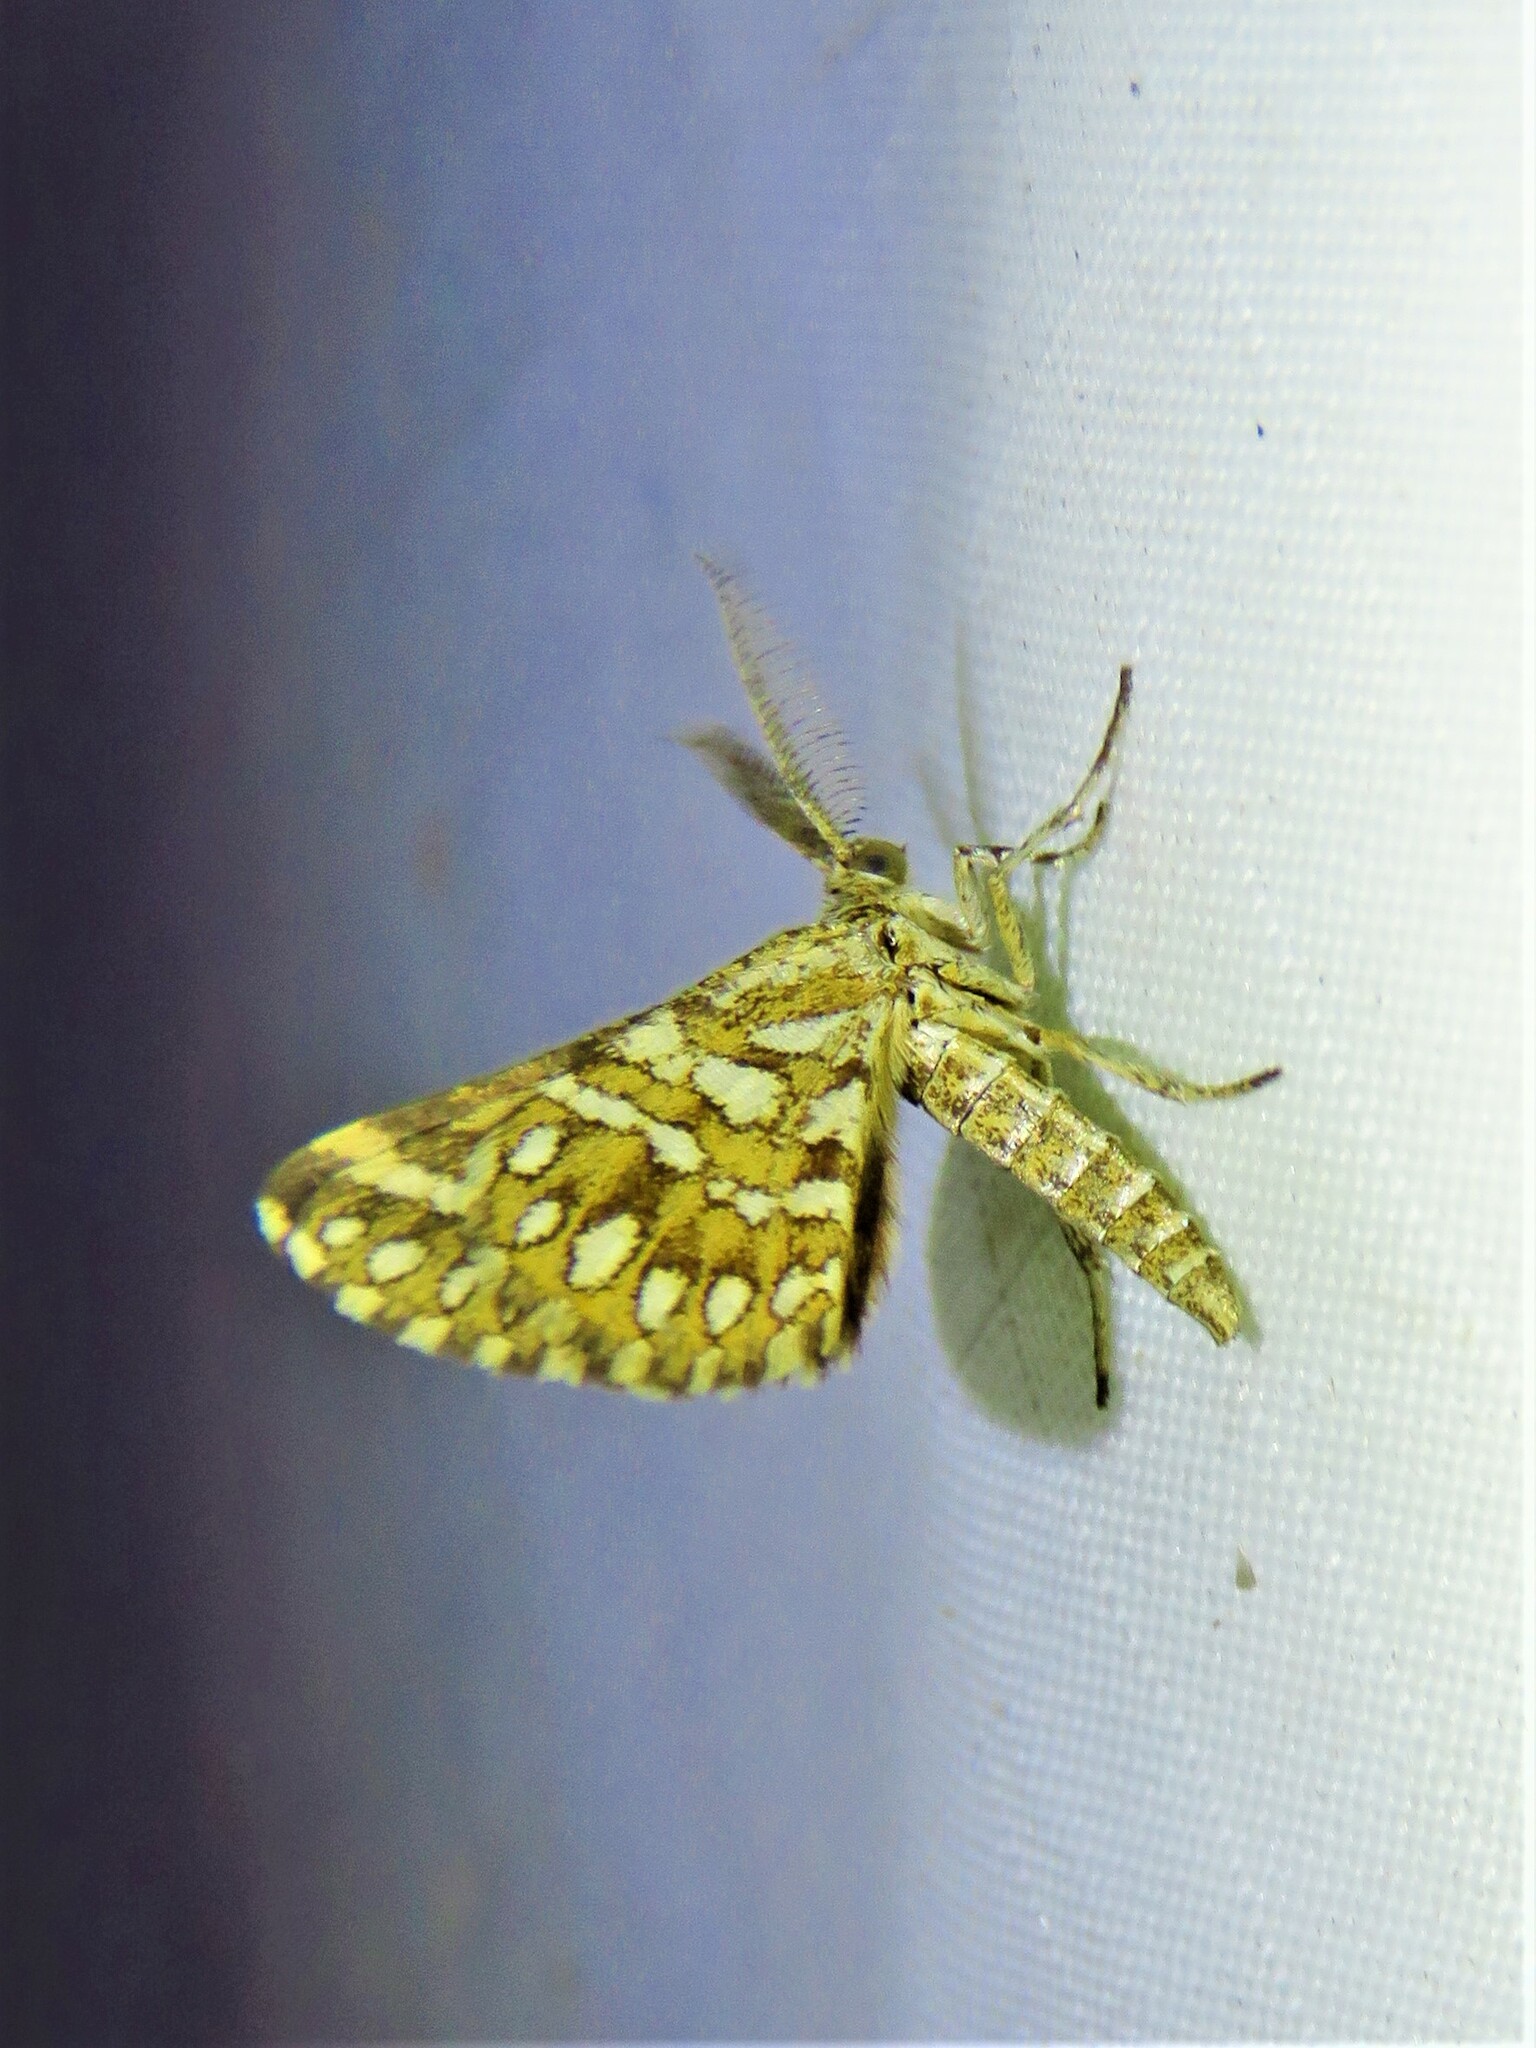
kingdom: Animalia
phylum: Arthropoda
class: Insecta
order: Lepidoptera
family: Geometridae
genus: Narraga
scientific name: Narraga fimetaria
